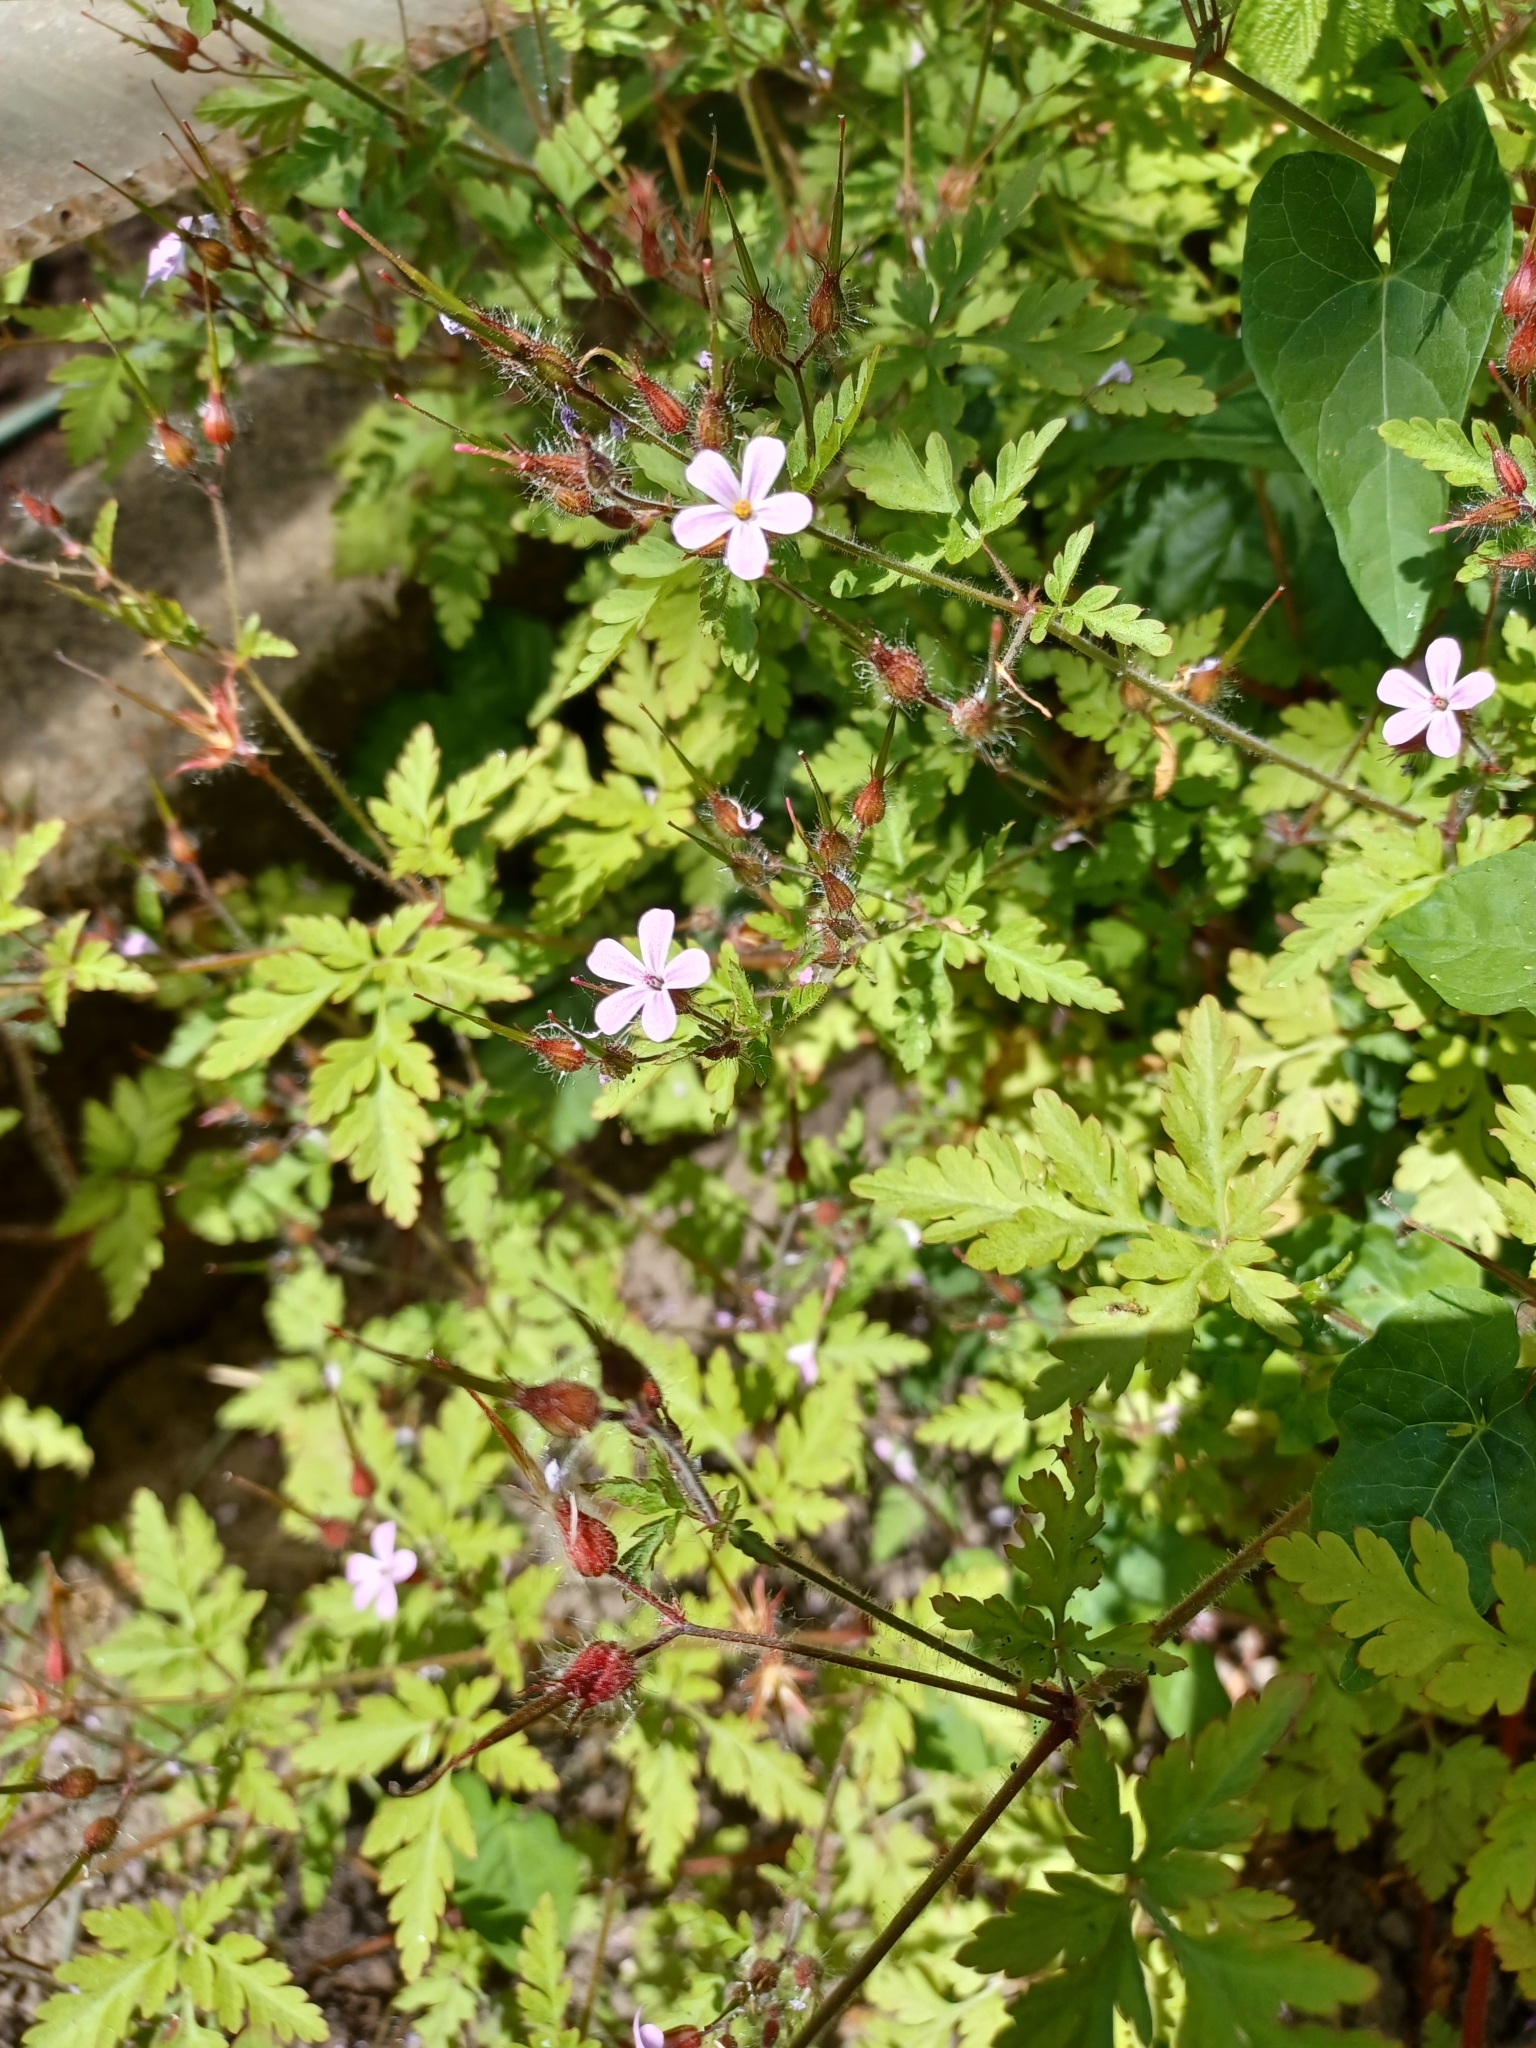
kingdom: Plantae
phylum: Tracheophyta
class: Magnoliopsida
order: Geraniales
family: Geraniaceae
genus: Geranium
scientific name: Geranium robertianum
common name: Herb-robert
